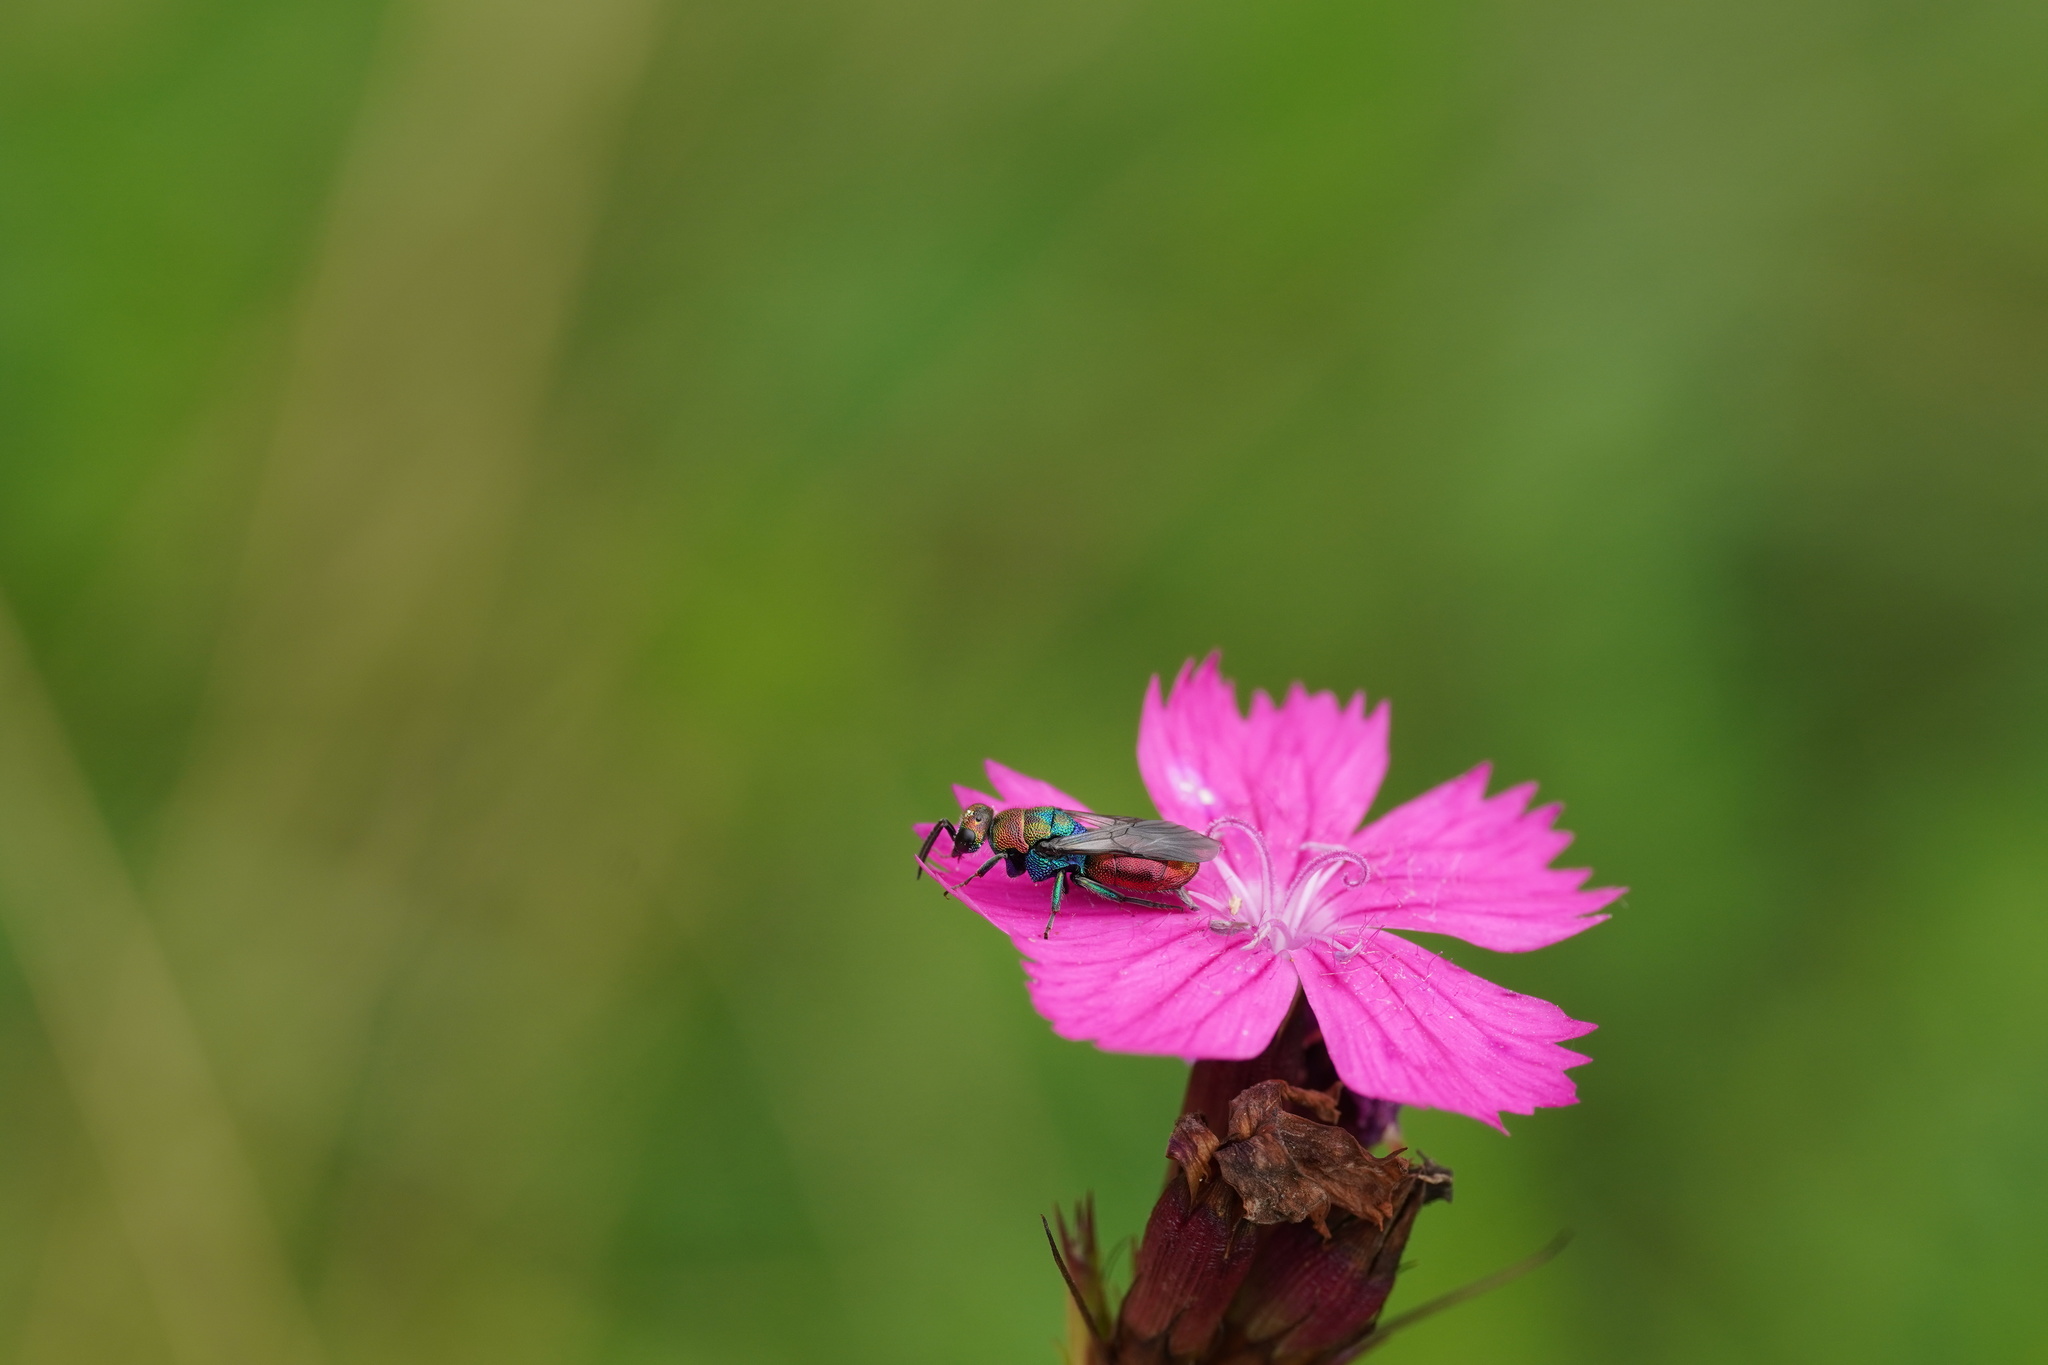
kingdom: Animalia
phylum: Arthropoda
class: Insecta
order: Hymenoptera
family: Chrysididae
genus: Hedychrum
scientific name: Hedychrum rutilans
